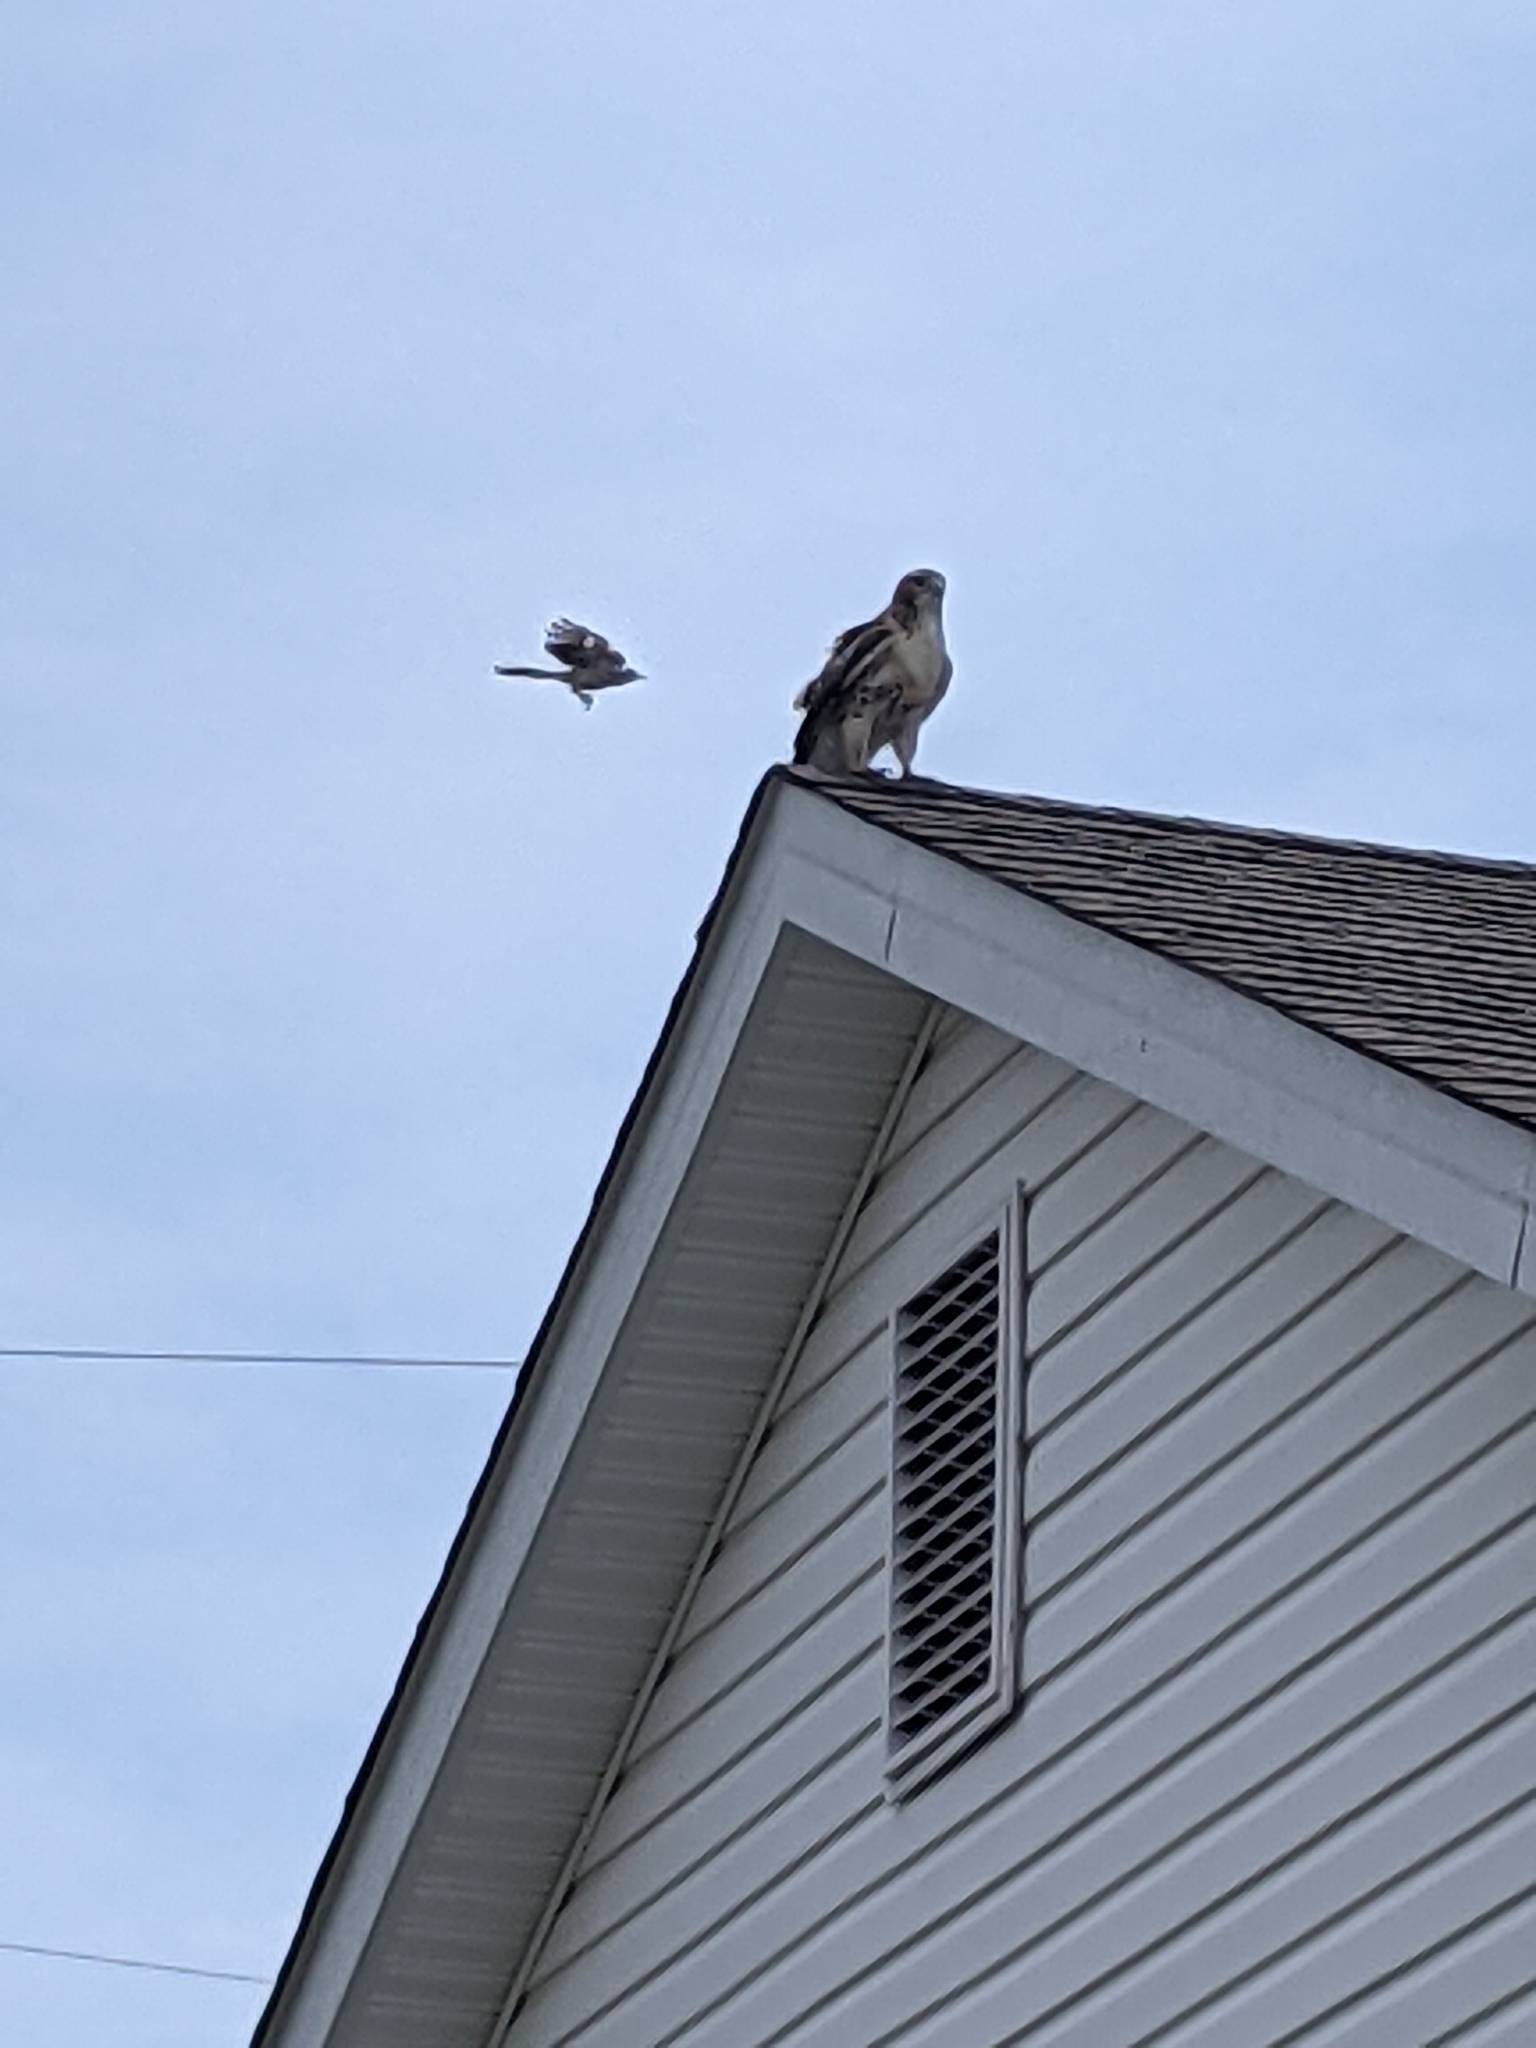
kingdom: Animalia
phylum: Chordata
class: Aves
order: Accipitriformes
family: Accipitridae
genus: Buteo
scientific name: Buteo jamaicensis
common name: Red-tailed hawk
